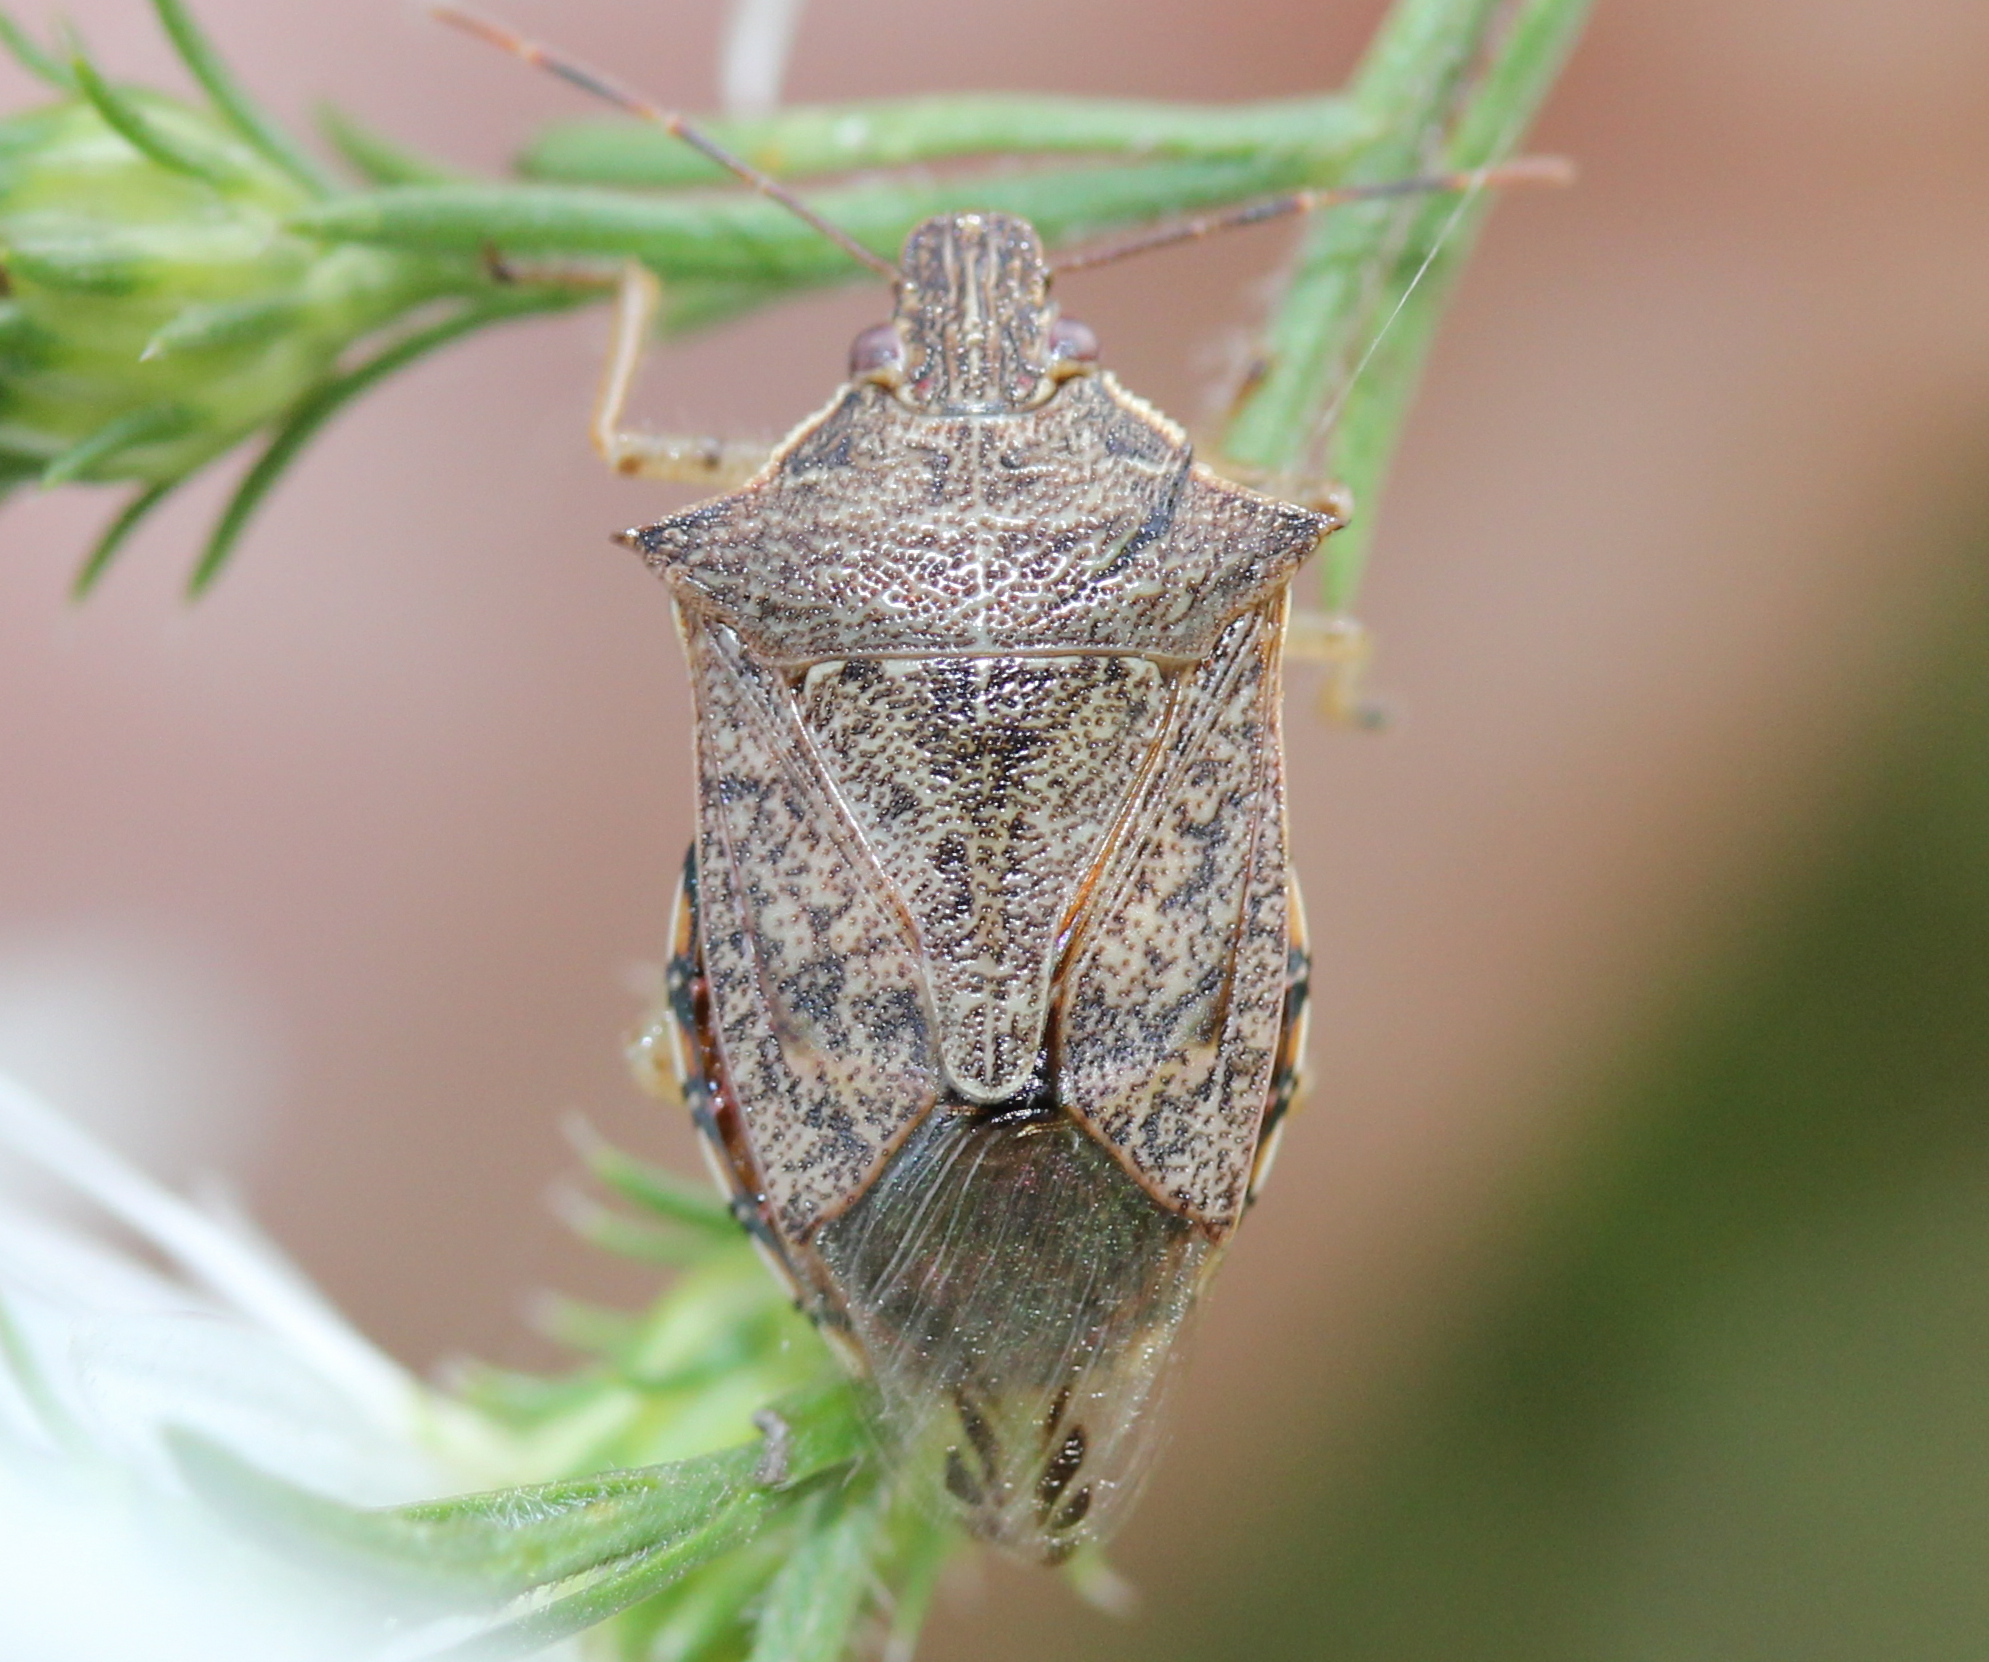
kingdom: Animalia
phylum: Arthropoda
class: Insecta
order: Hemiptera
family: Pentatomidae
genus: Podisus
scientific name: Podisus maculiventris
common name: Spined soldier bug
